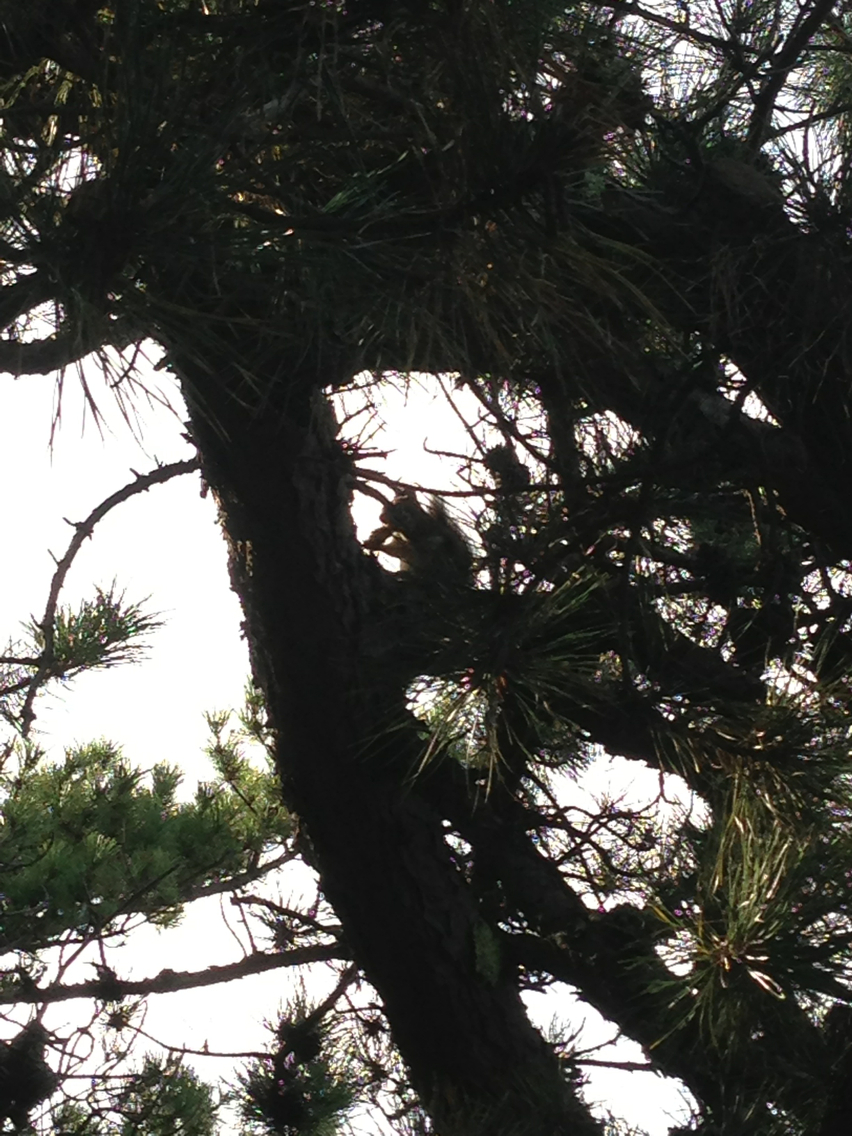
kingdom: Animalia
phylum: Chordata
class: Mammalia
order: Rodentia
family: Sciuridae
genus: Tamiasciurus
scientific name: Tamiasciurus hudsonicus
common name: Red squirrel
